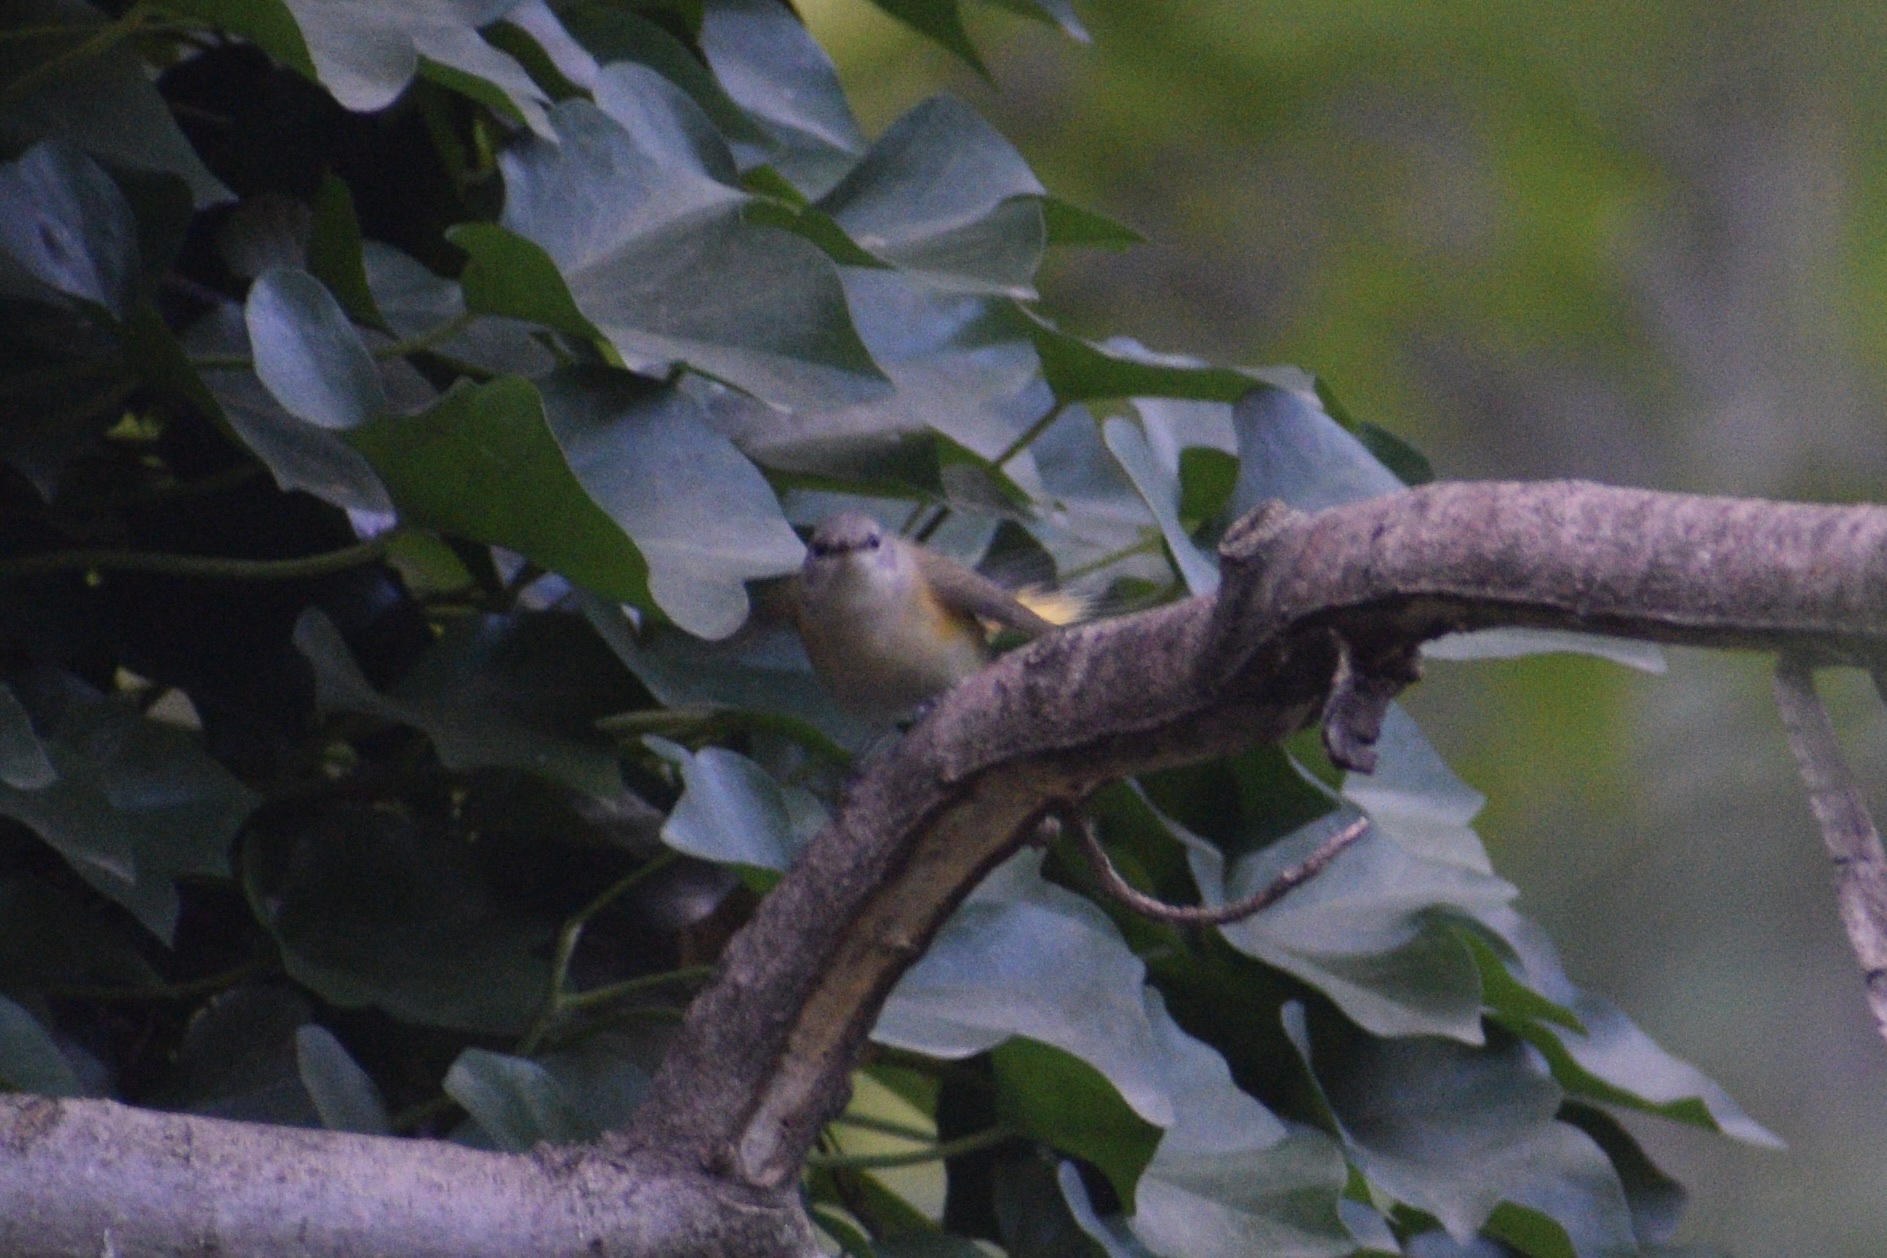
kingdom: Animalia
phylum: Chordata
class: Aves
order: Passeriformes
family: Parulidae
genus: Setophaga
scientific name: Setophaga ruticilla
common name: American redstart
